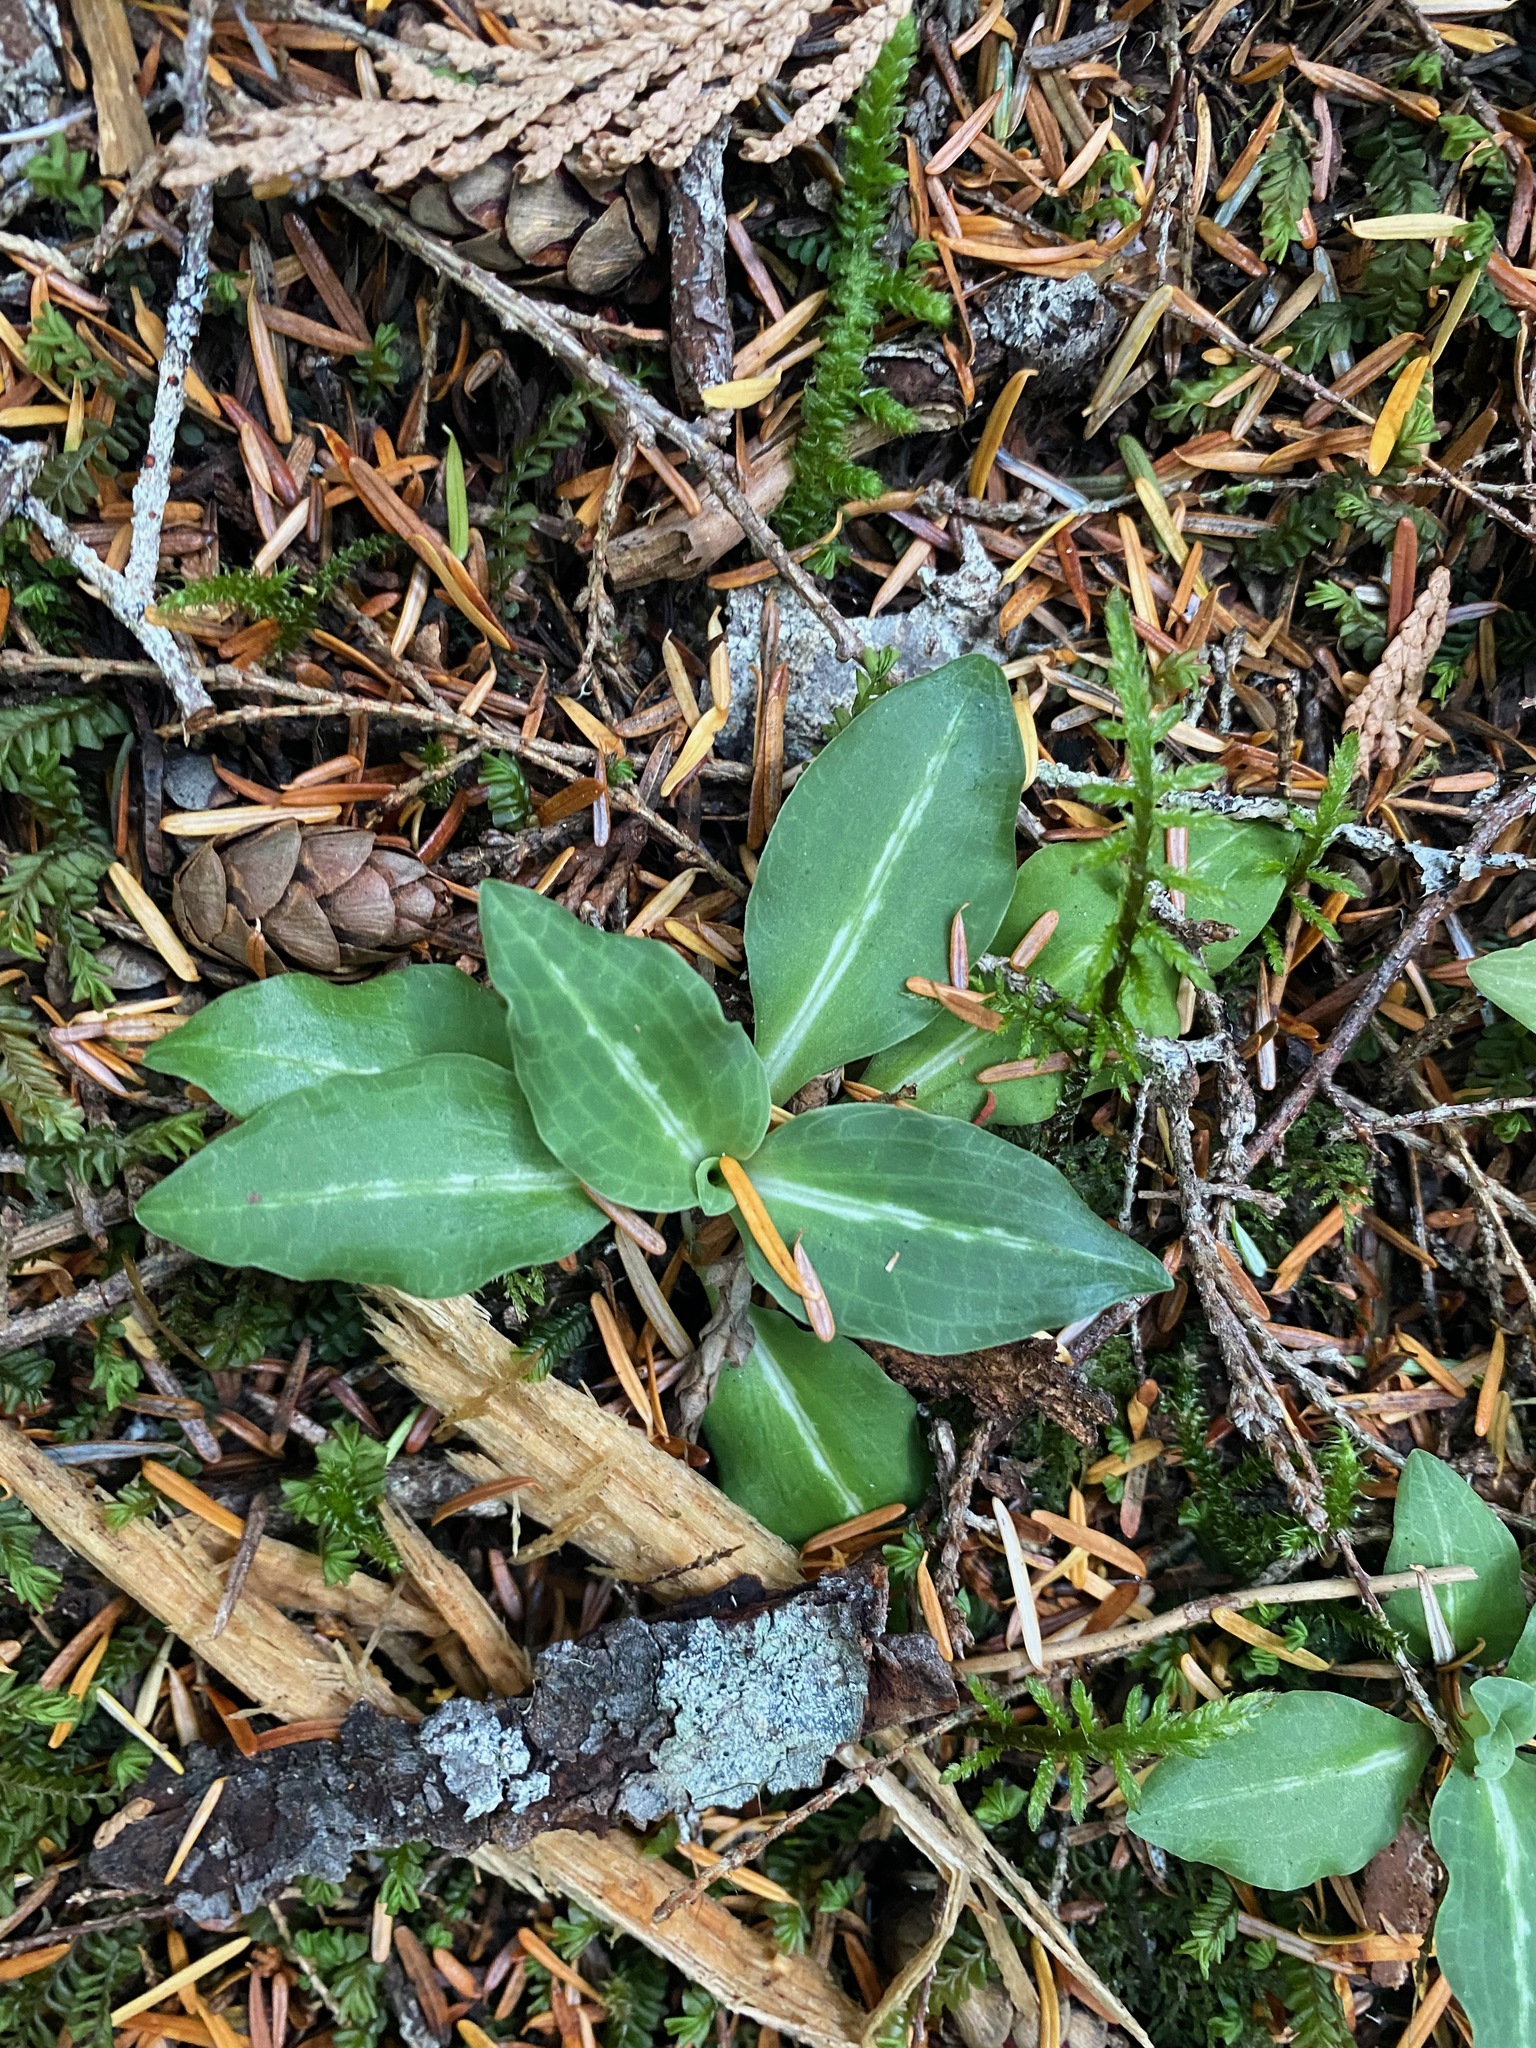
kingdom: Plantae
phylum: Tracheophyta
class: Liliopsida
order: Asparagales
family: Orchidaceae
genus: Goodyera
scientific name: Goodyera oblongifolia
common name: Giant rattlesnake-plantain
